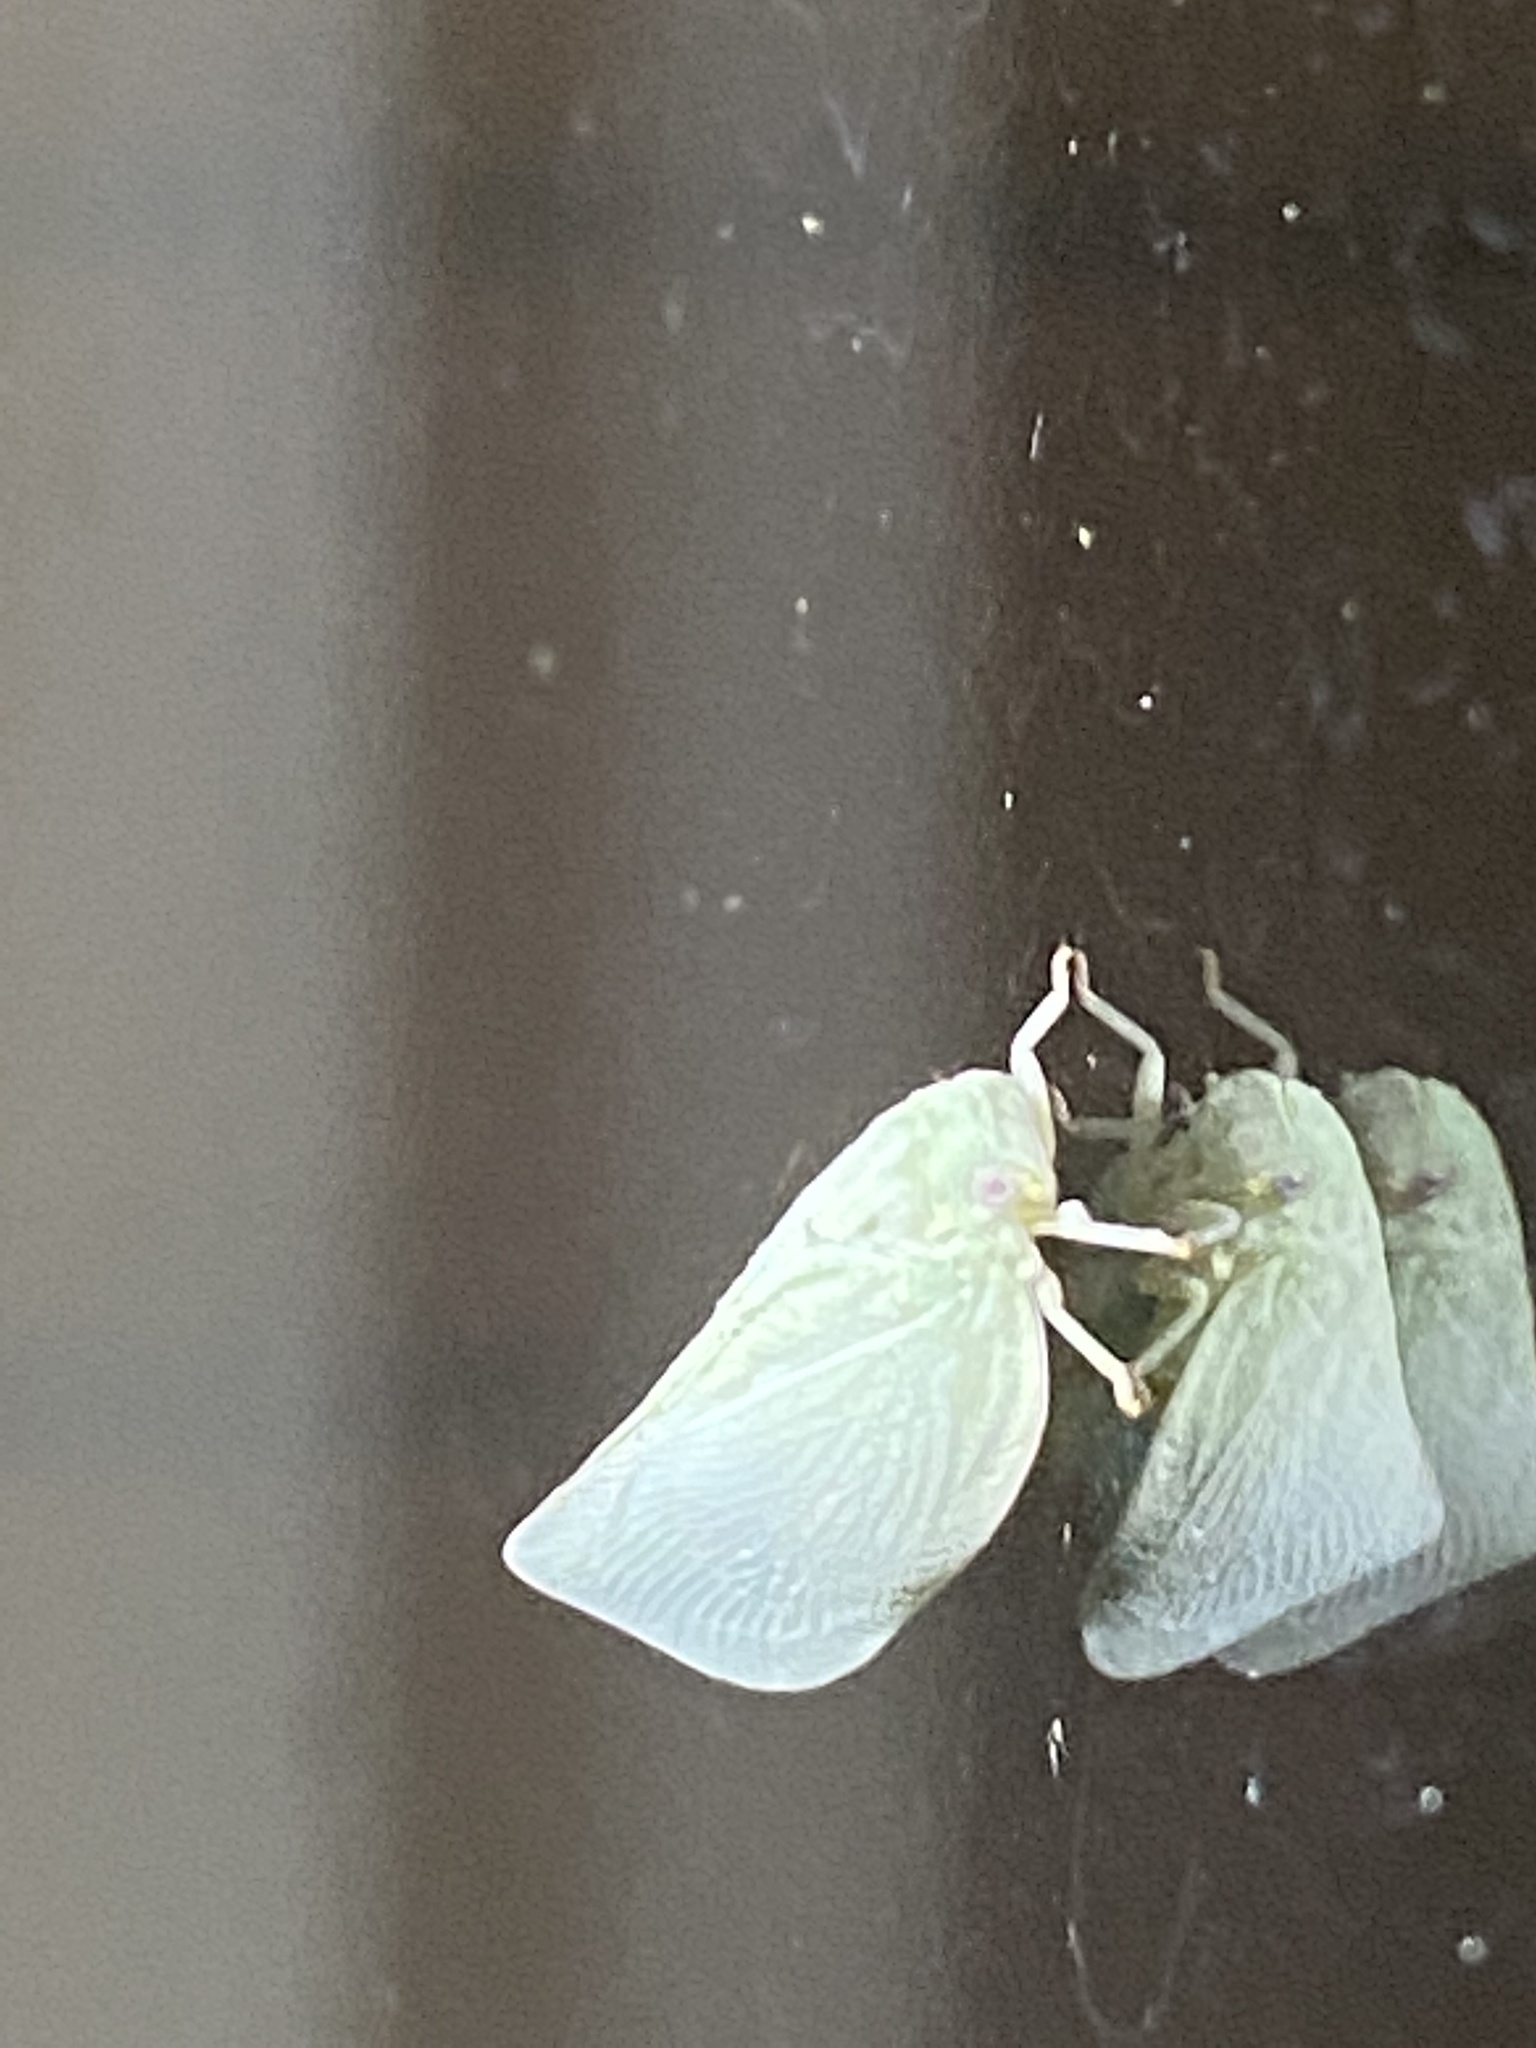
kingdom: Animalia
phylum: Arthropoda
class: Insecta
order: Hemiptera
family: Flatidae
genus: Flatormenis
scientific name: Flatormenis proxima
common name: Northern flatid planthopper
